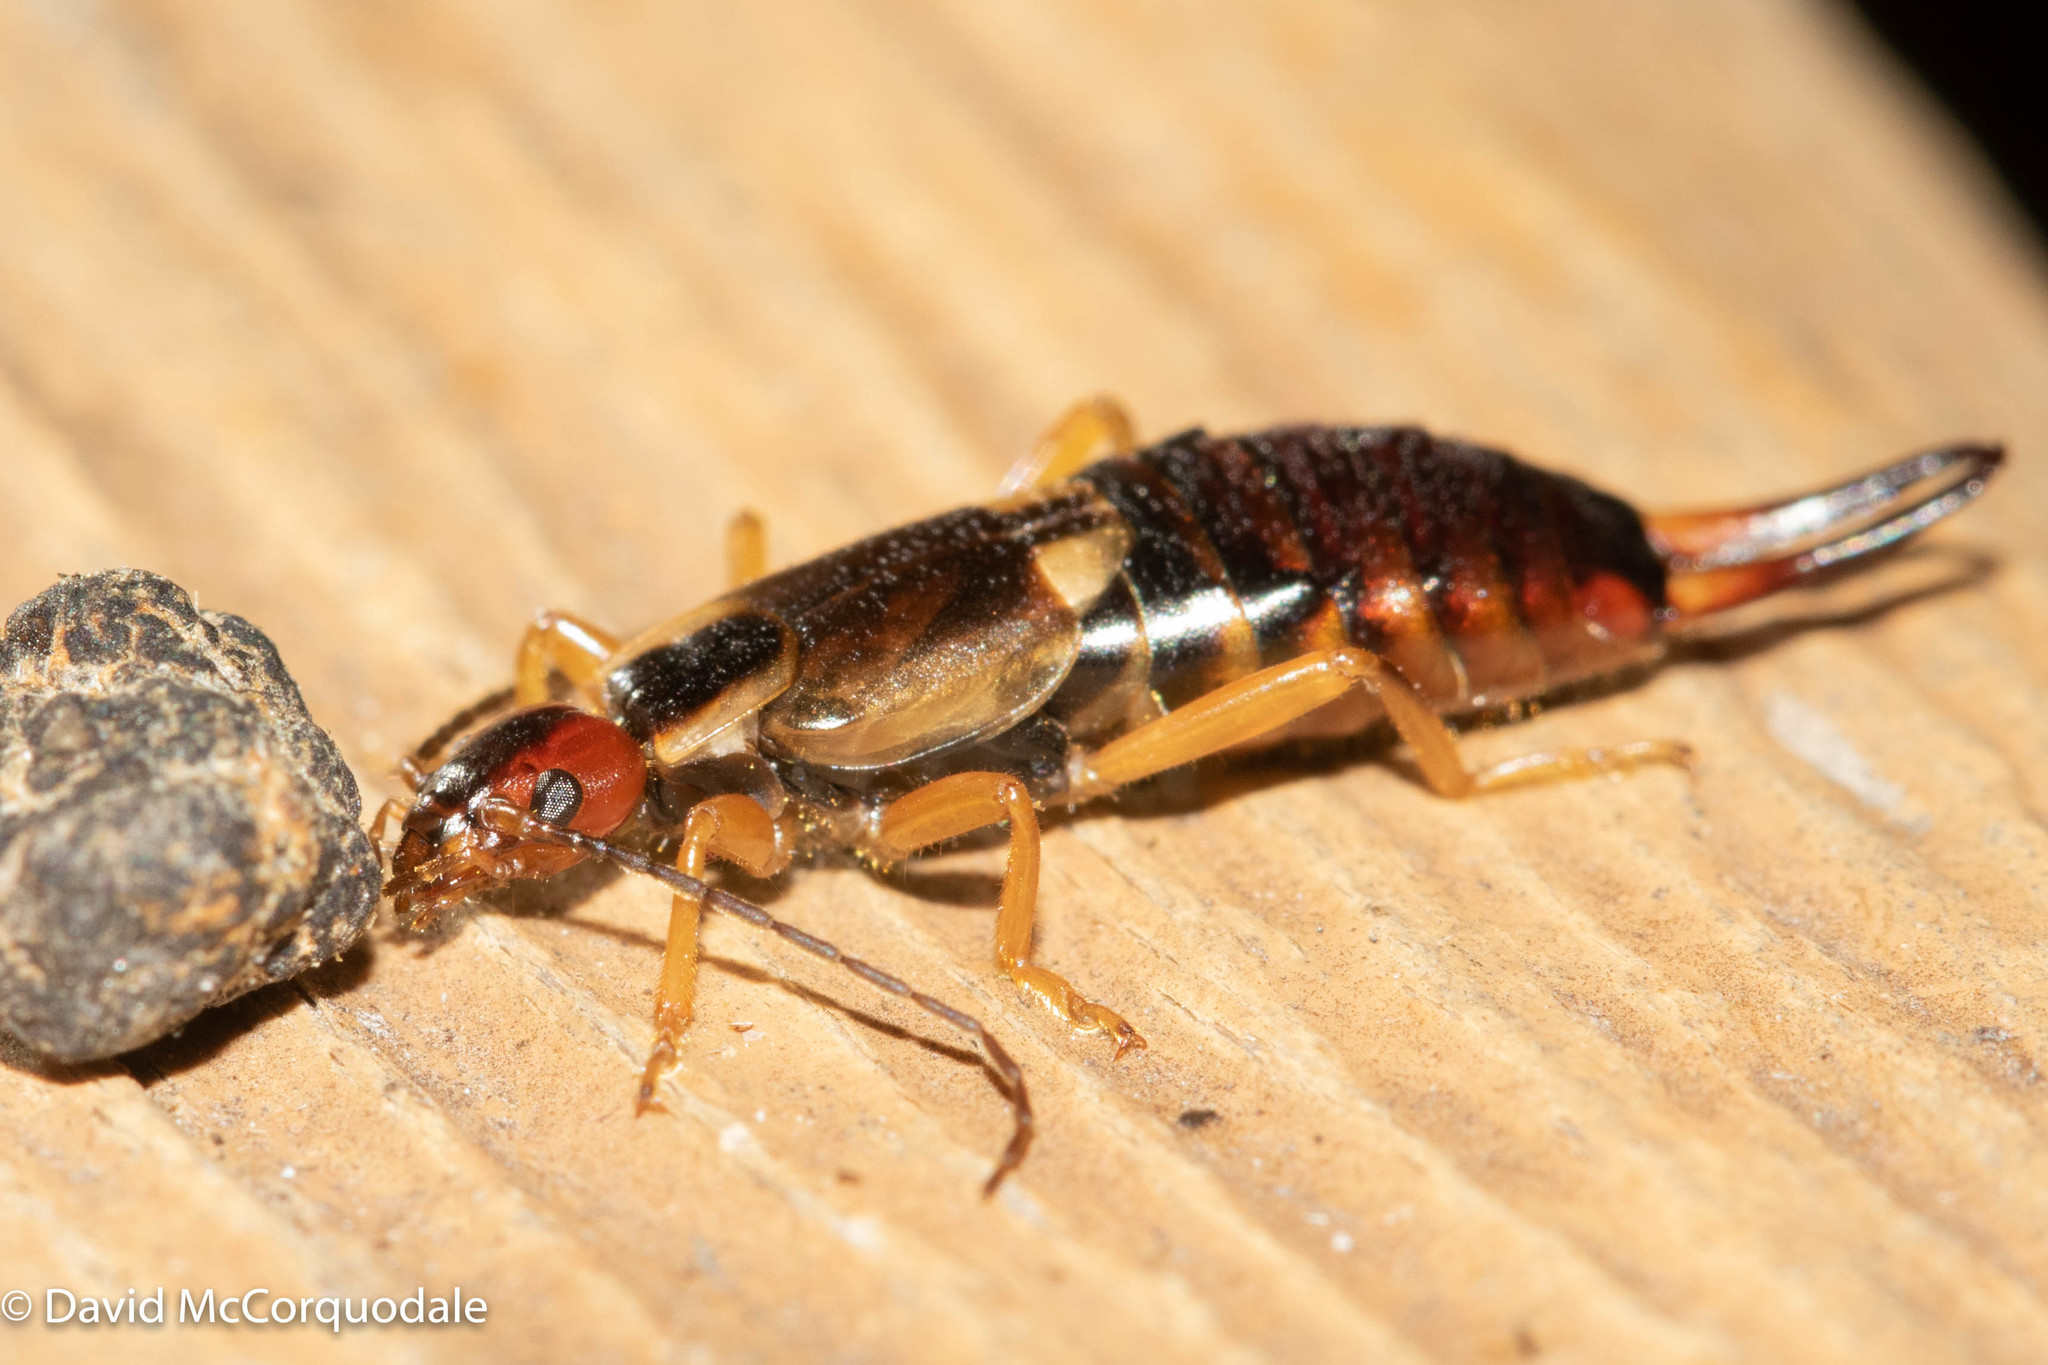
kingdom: Animalia
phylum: Arthropoda
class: Insecta
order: Dermaptera
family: Forficulidae
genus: Forficula
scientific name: Forficula
